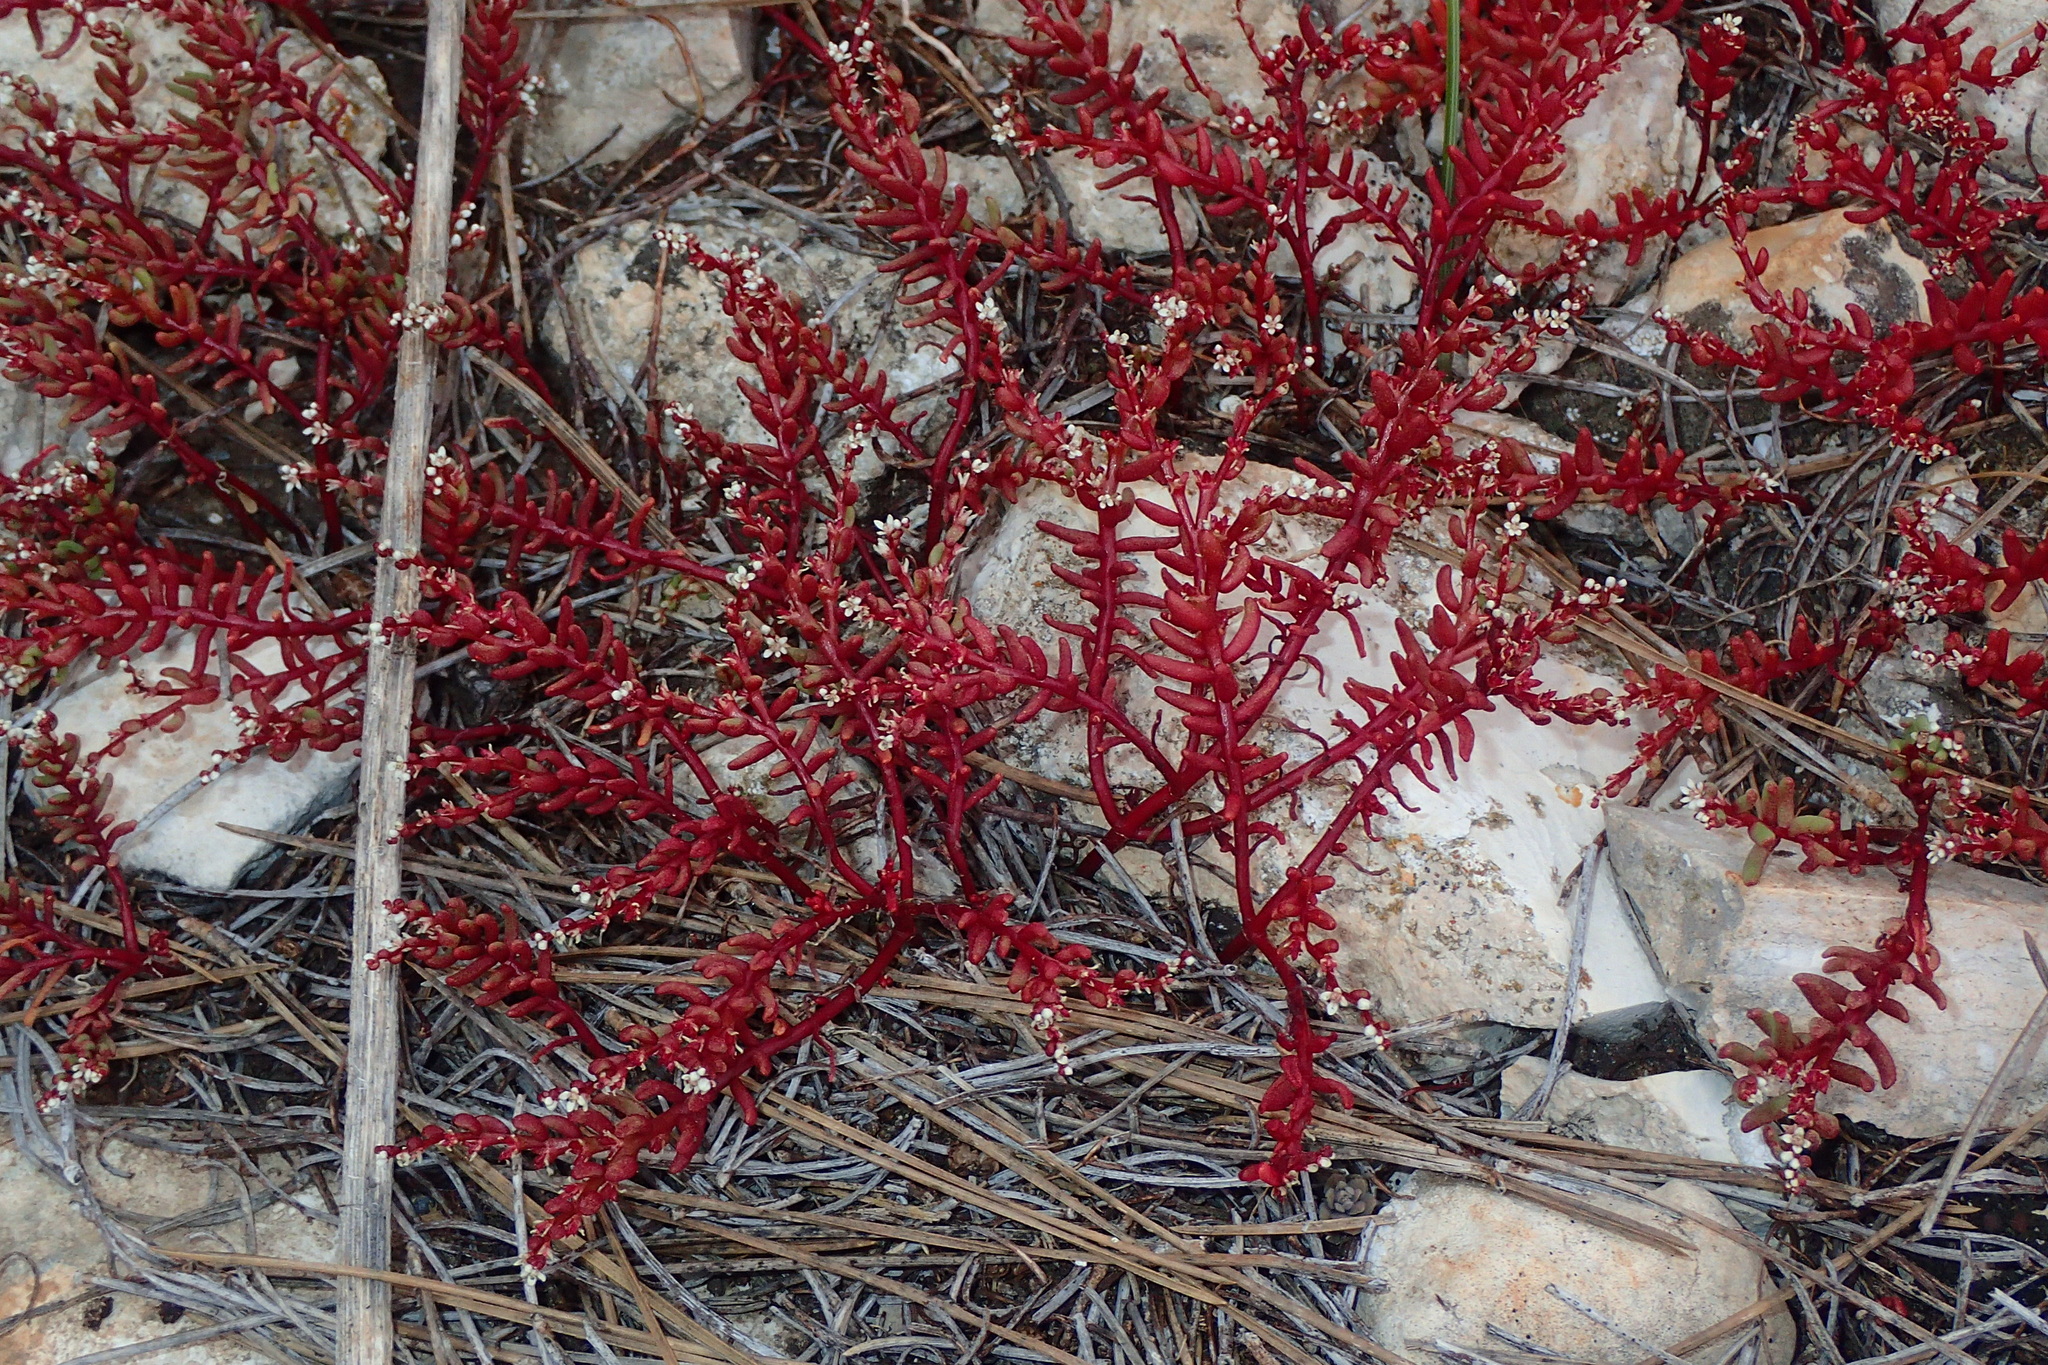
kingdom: Plantae
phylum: Tracheophyta
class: Magnoliopsida
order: Saxifragales
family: Crassulaceae
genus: Sedum
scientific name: Sedum microcarpum
